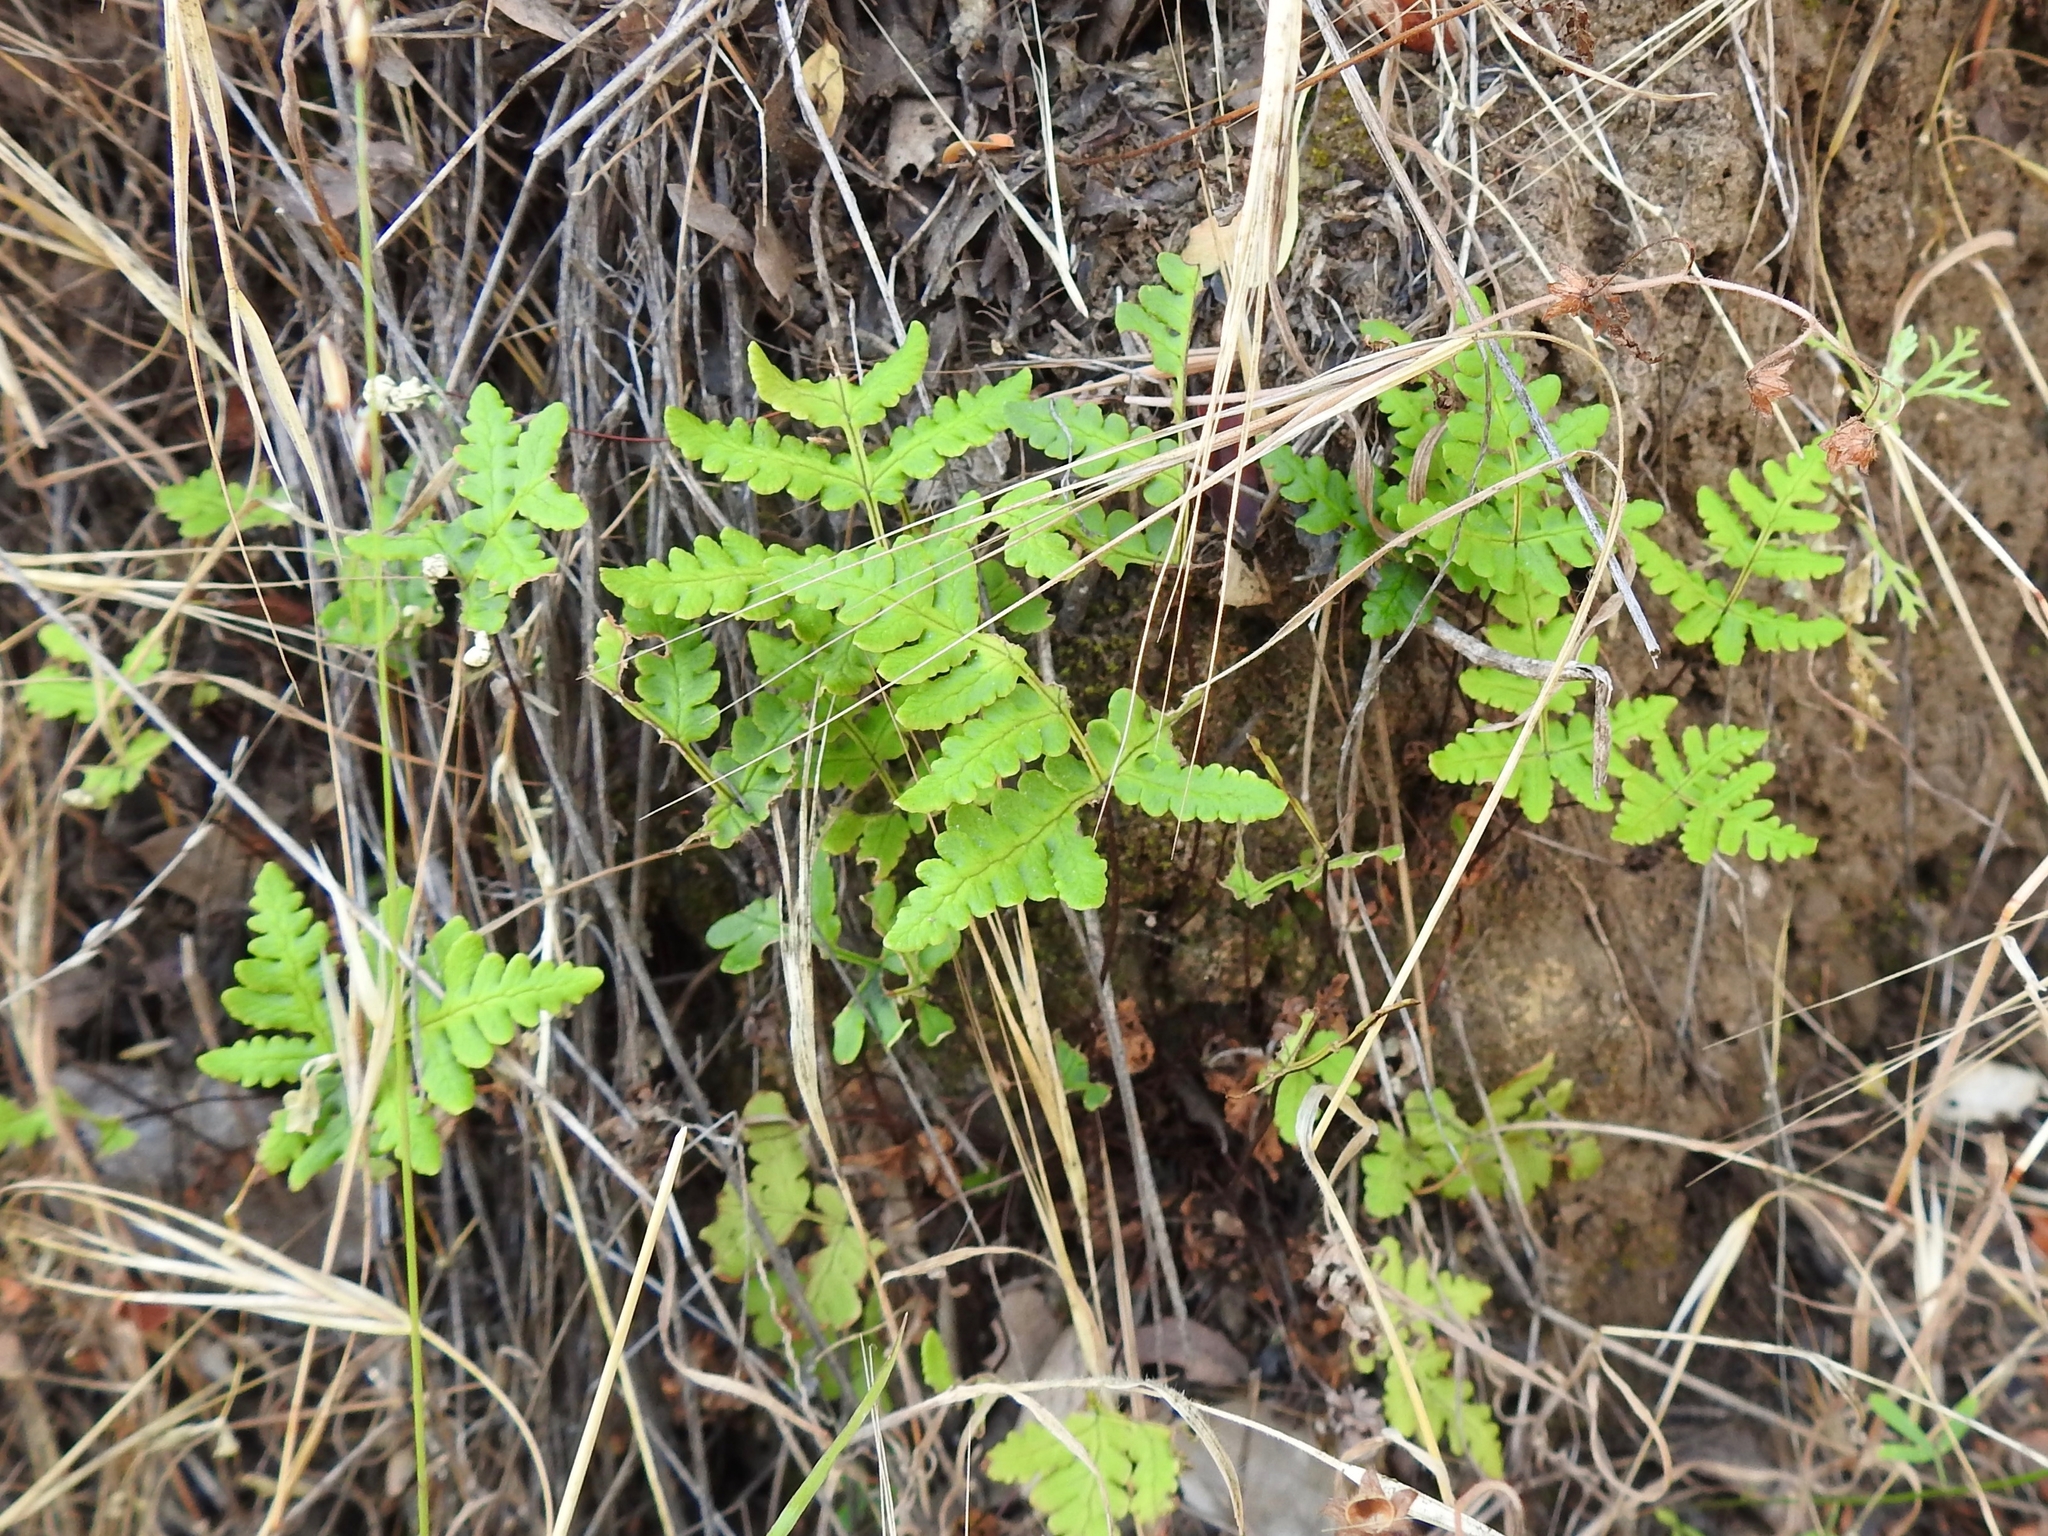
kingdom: Plantae
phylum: Tracheophyta
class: Polypodiopsida
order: Polypodiales
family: Pteridaceae
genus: Pentagramma
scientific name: Pentagramma triangularis
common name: Gold fern
